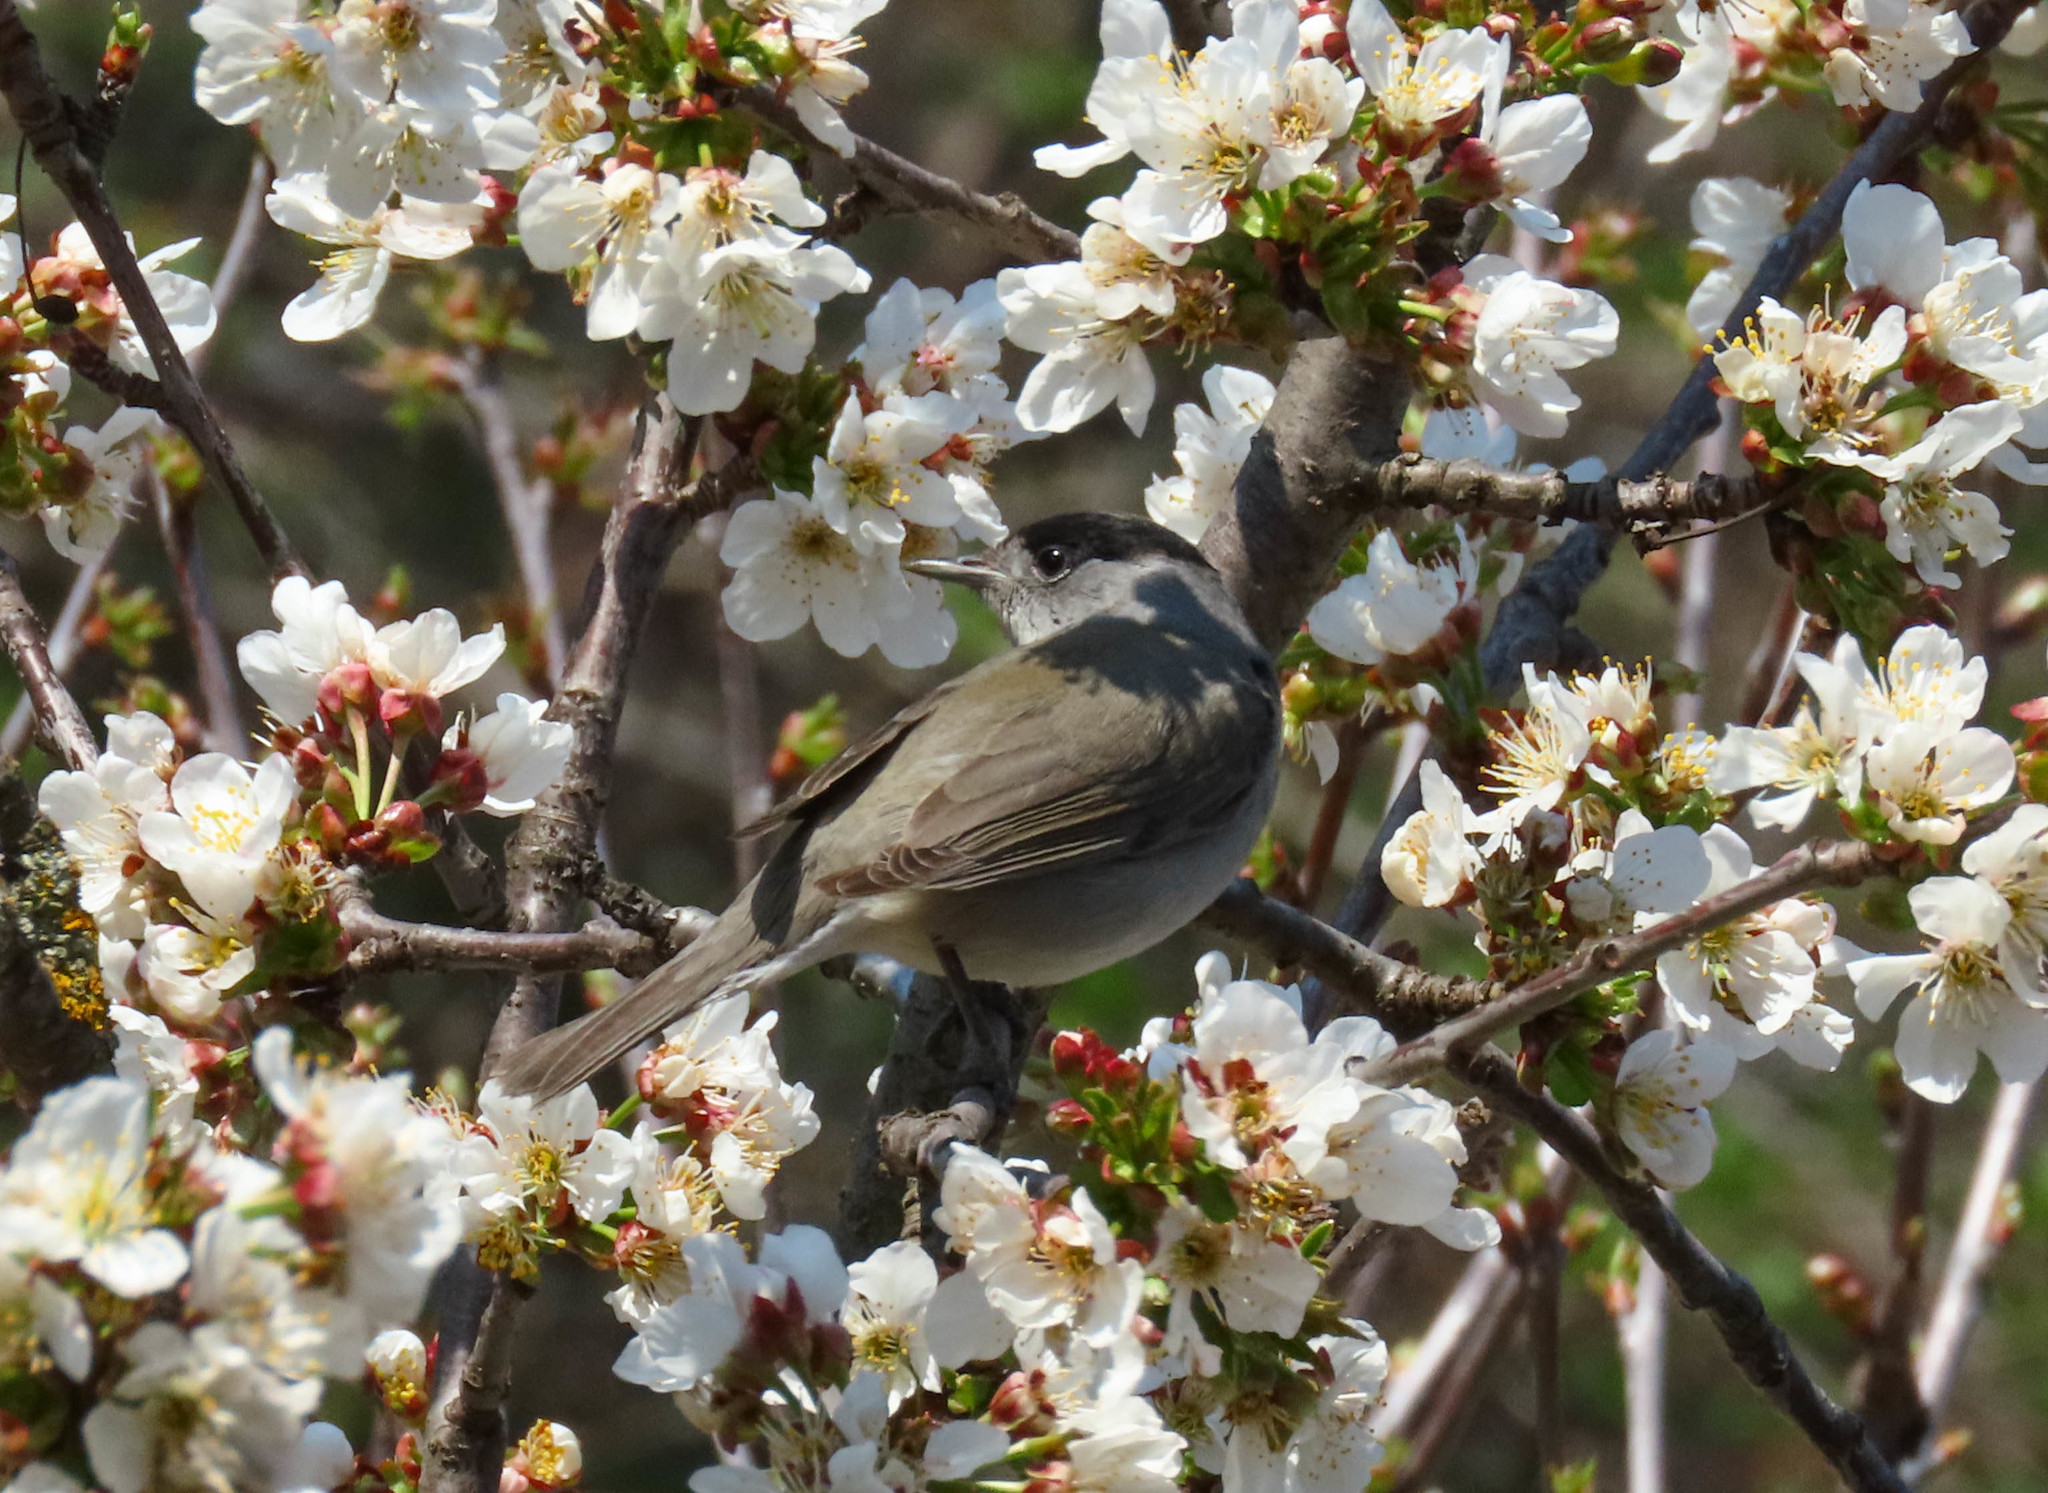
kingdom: Animalia
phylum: Chordata
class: Aves
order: Passeriformes
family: Sylviidae
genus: Sylvia
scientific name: Sylvia atricapilla
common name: Eurasian blackcap
